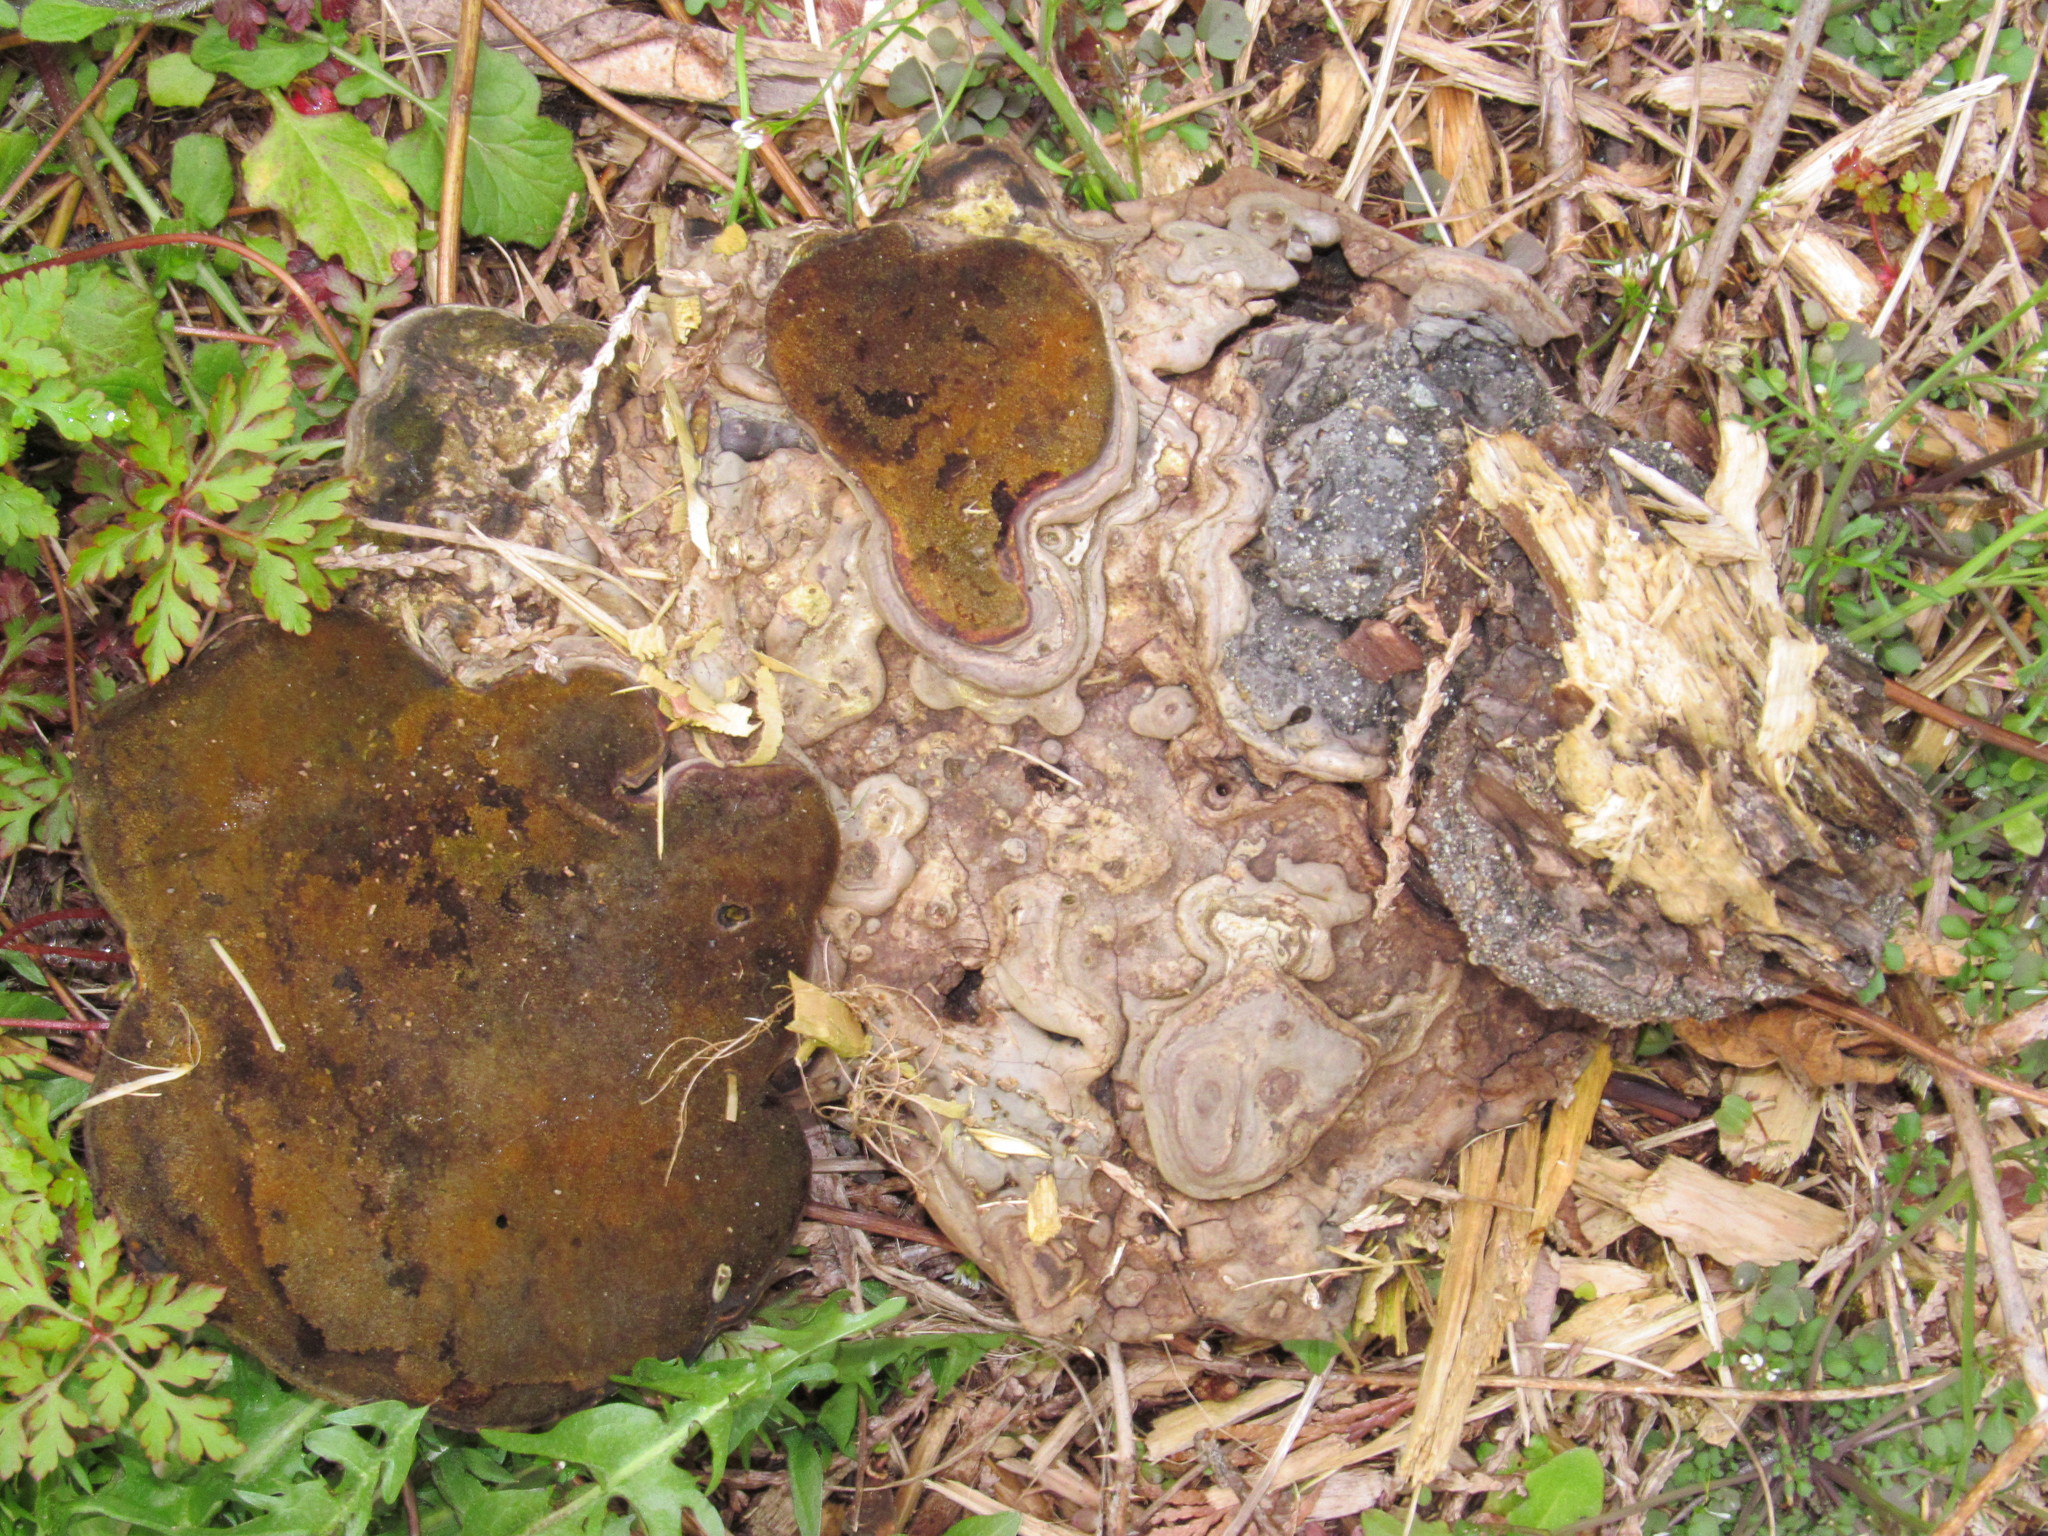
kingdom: Fungi
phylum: Basidiomycota
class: Agaricomycetes
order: Polyporales
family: Polyporaceae
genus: Ganoderma
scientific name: Ganoderma applanatum
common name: Artist's bracket
